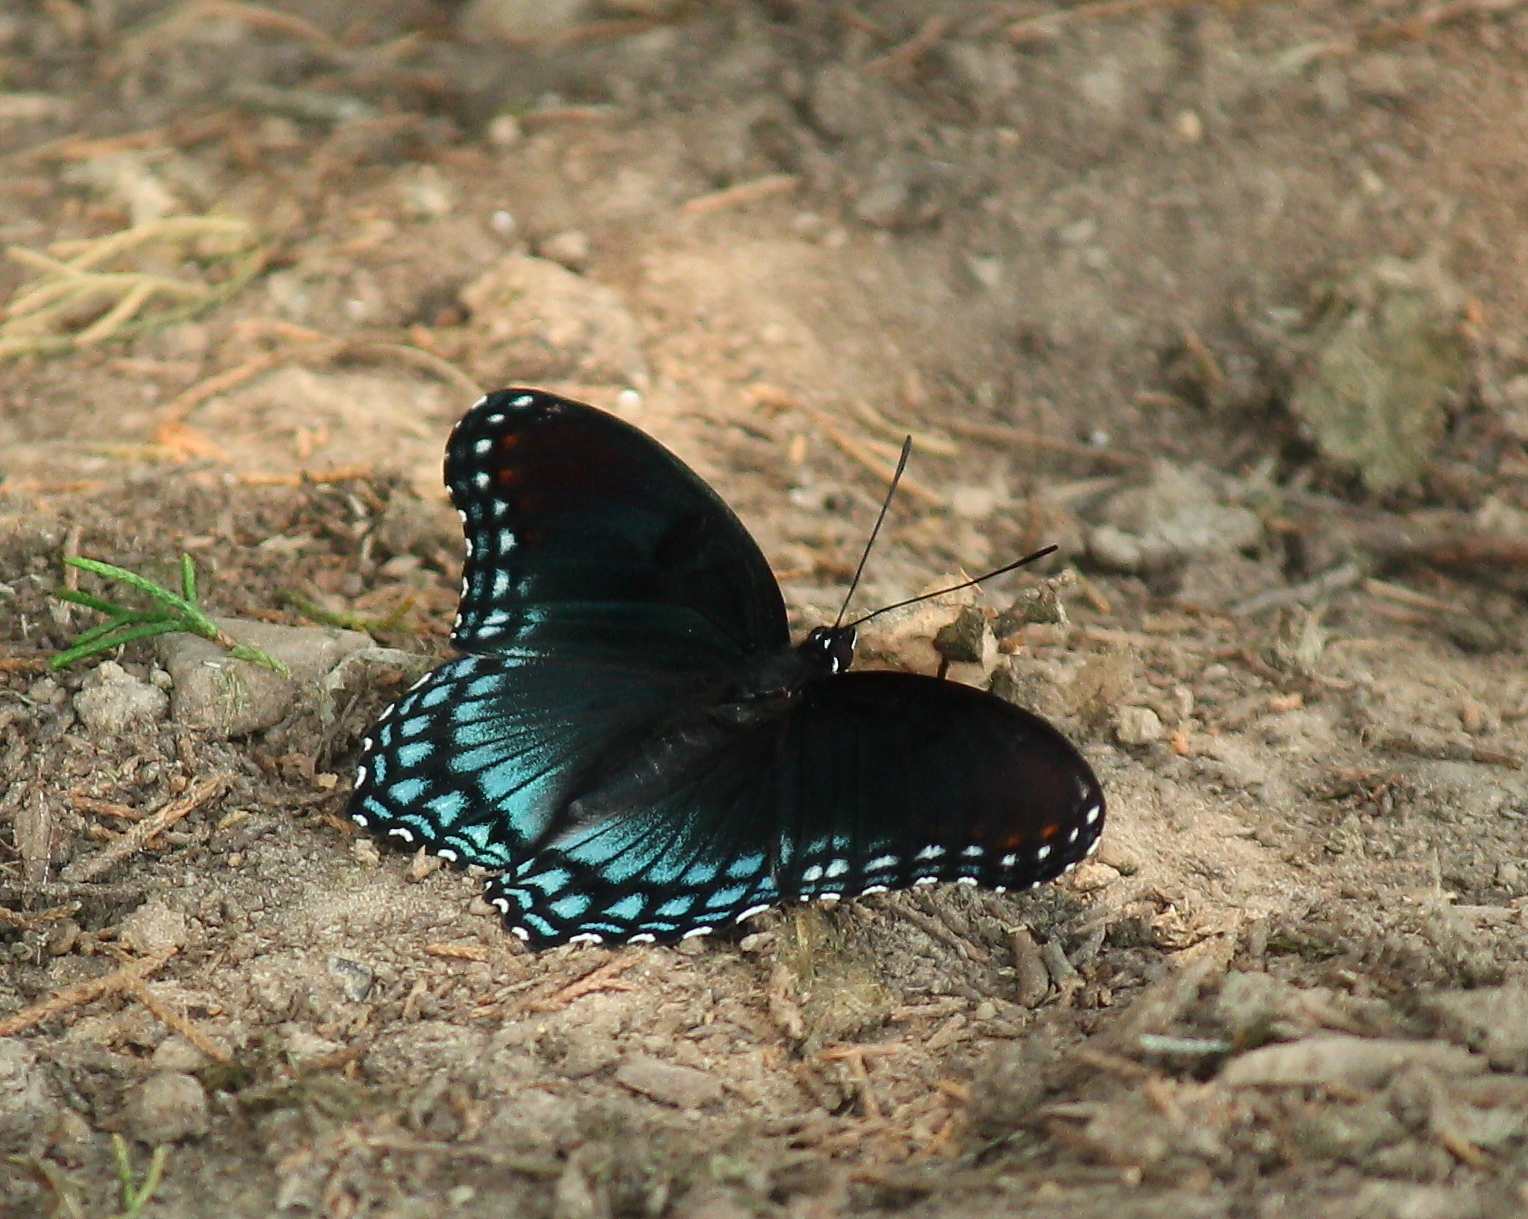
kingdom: Animalia
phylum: Arthropoda
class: Insecta
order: Lepidoptera
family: Nymphalidae
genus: Limenitis
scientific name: Limenitis astyanax
